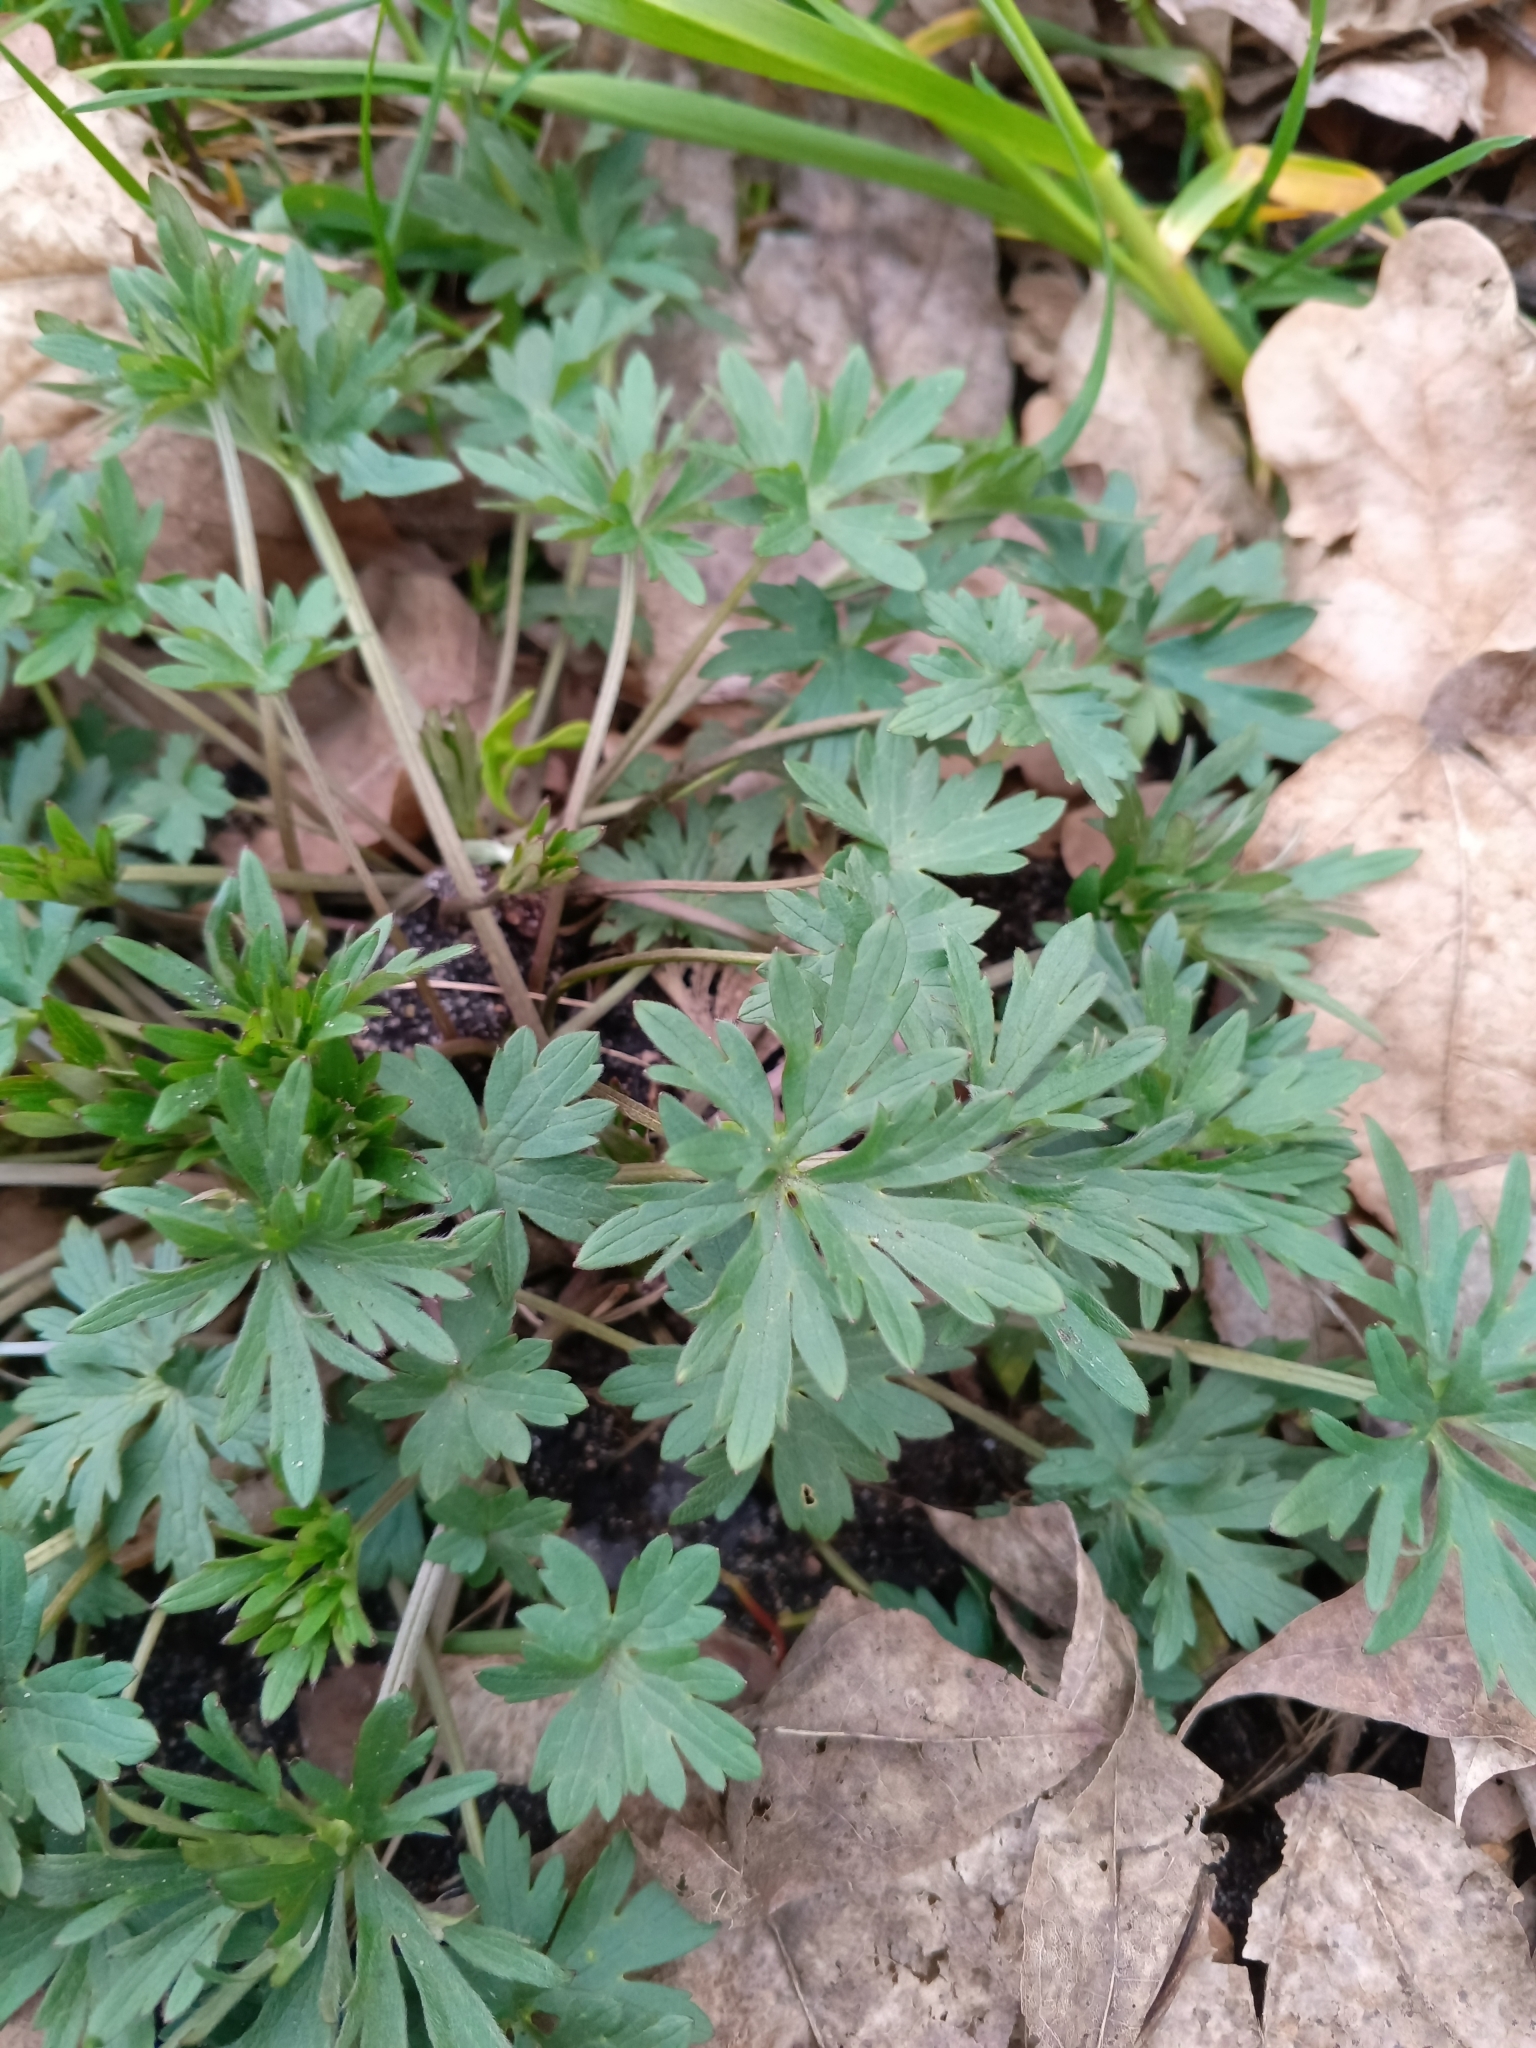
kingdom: Plantae
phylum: Tracheophyta
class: Magnoliopsida
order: Ranunculales
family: Ranunculaceae
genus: Ranunculus
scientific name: Ranunculus acris
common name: Meadow buttercup
